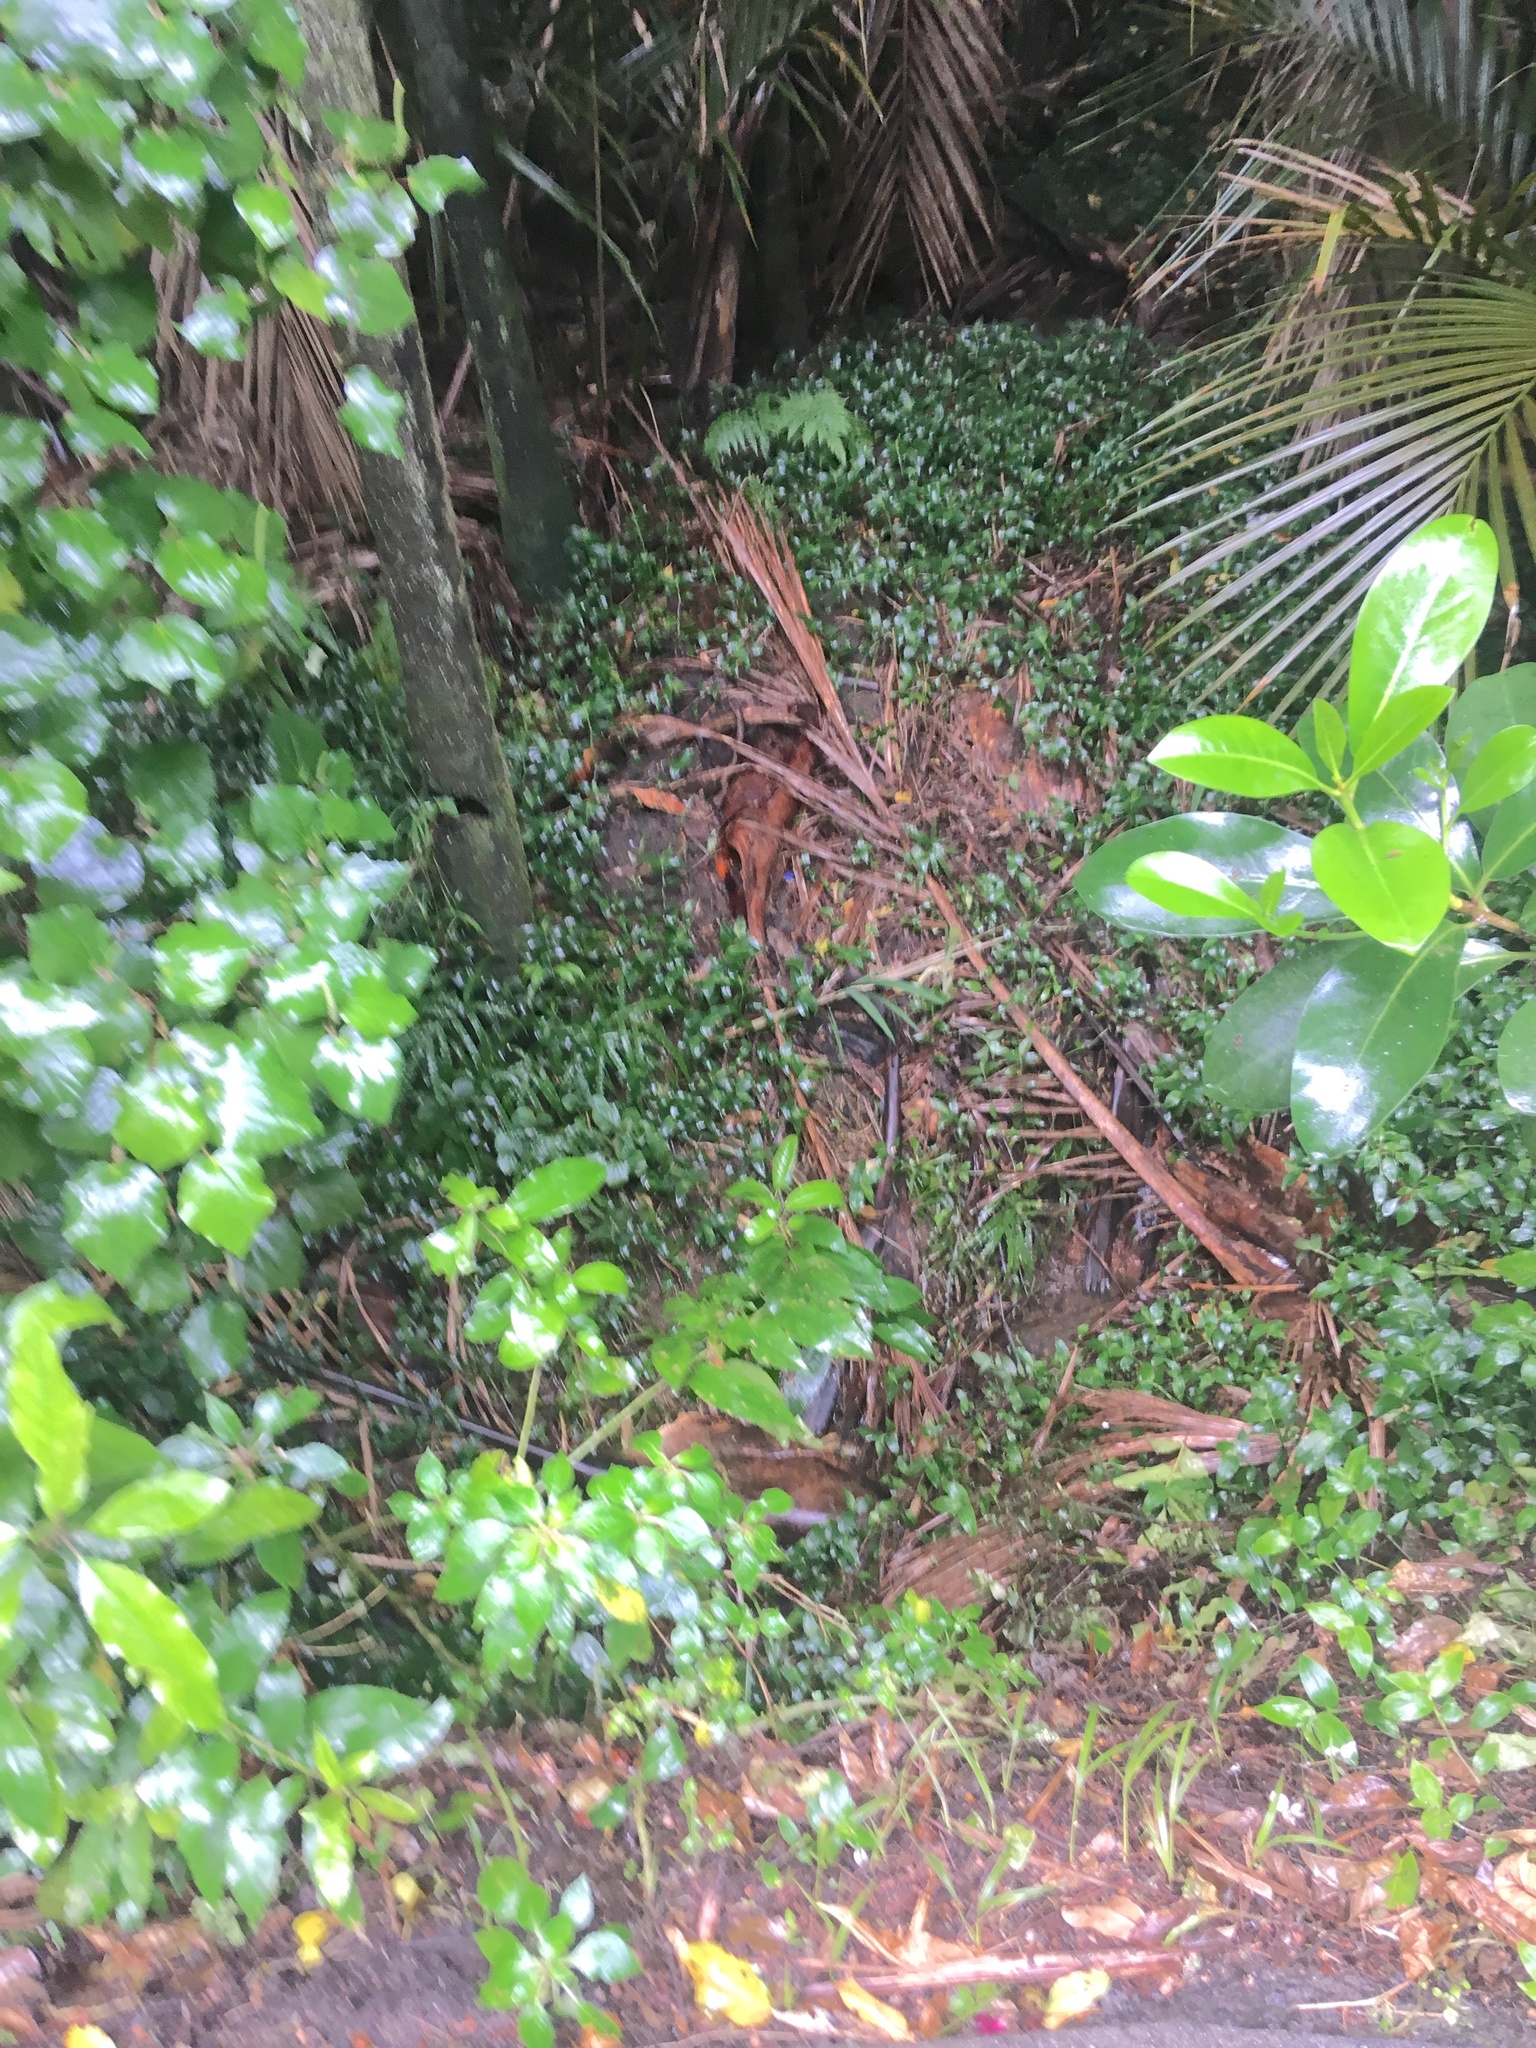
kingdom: Plantae
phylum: Tracheophyta
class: Liliopsida
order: Commelinales
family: Commelinaceae
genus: Tradescantia
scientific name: Tradescantia fluminensis
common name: Wandering-jew
